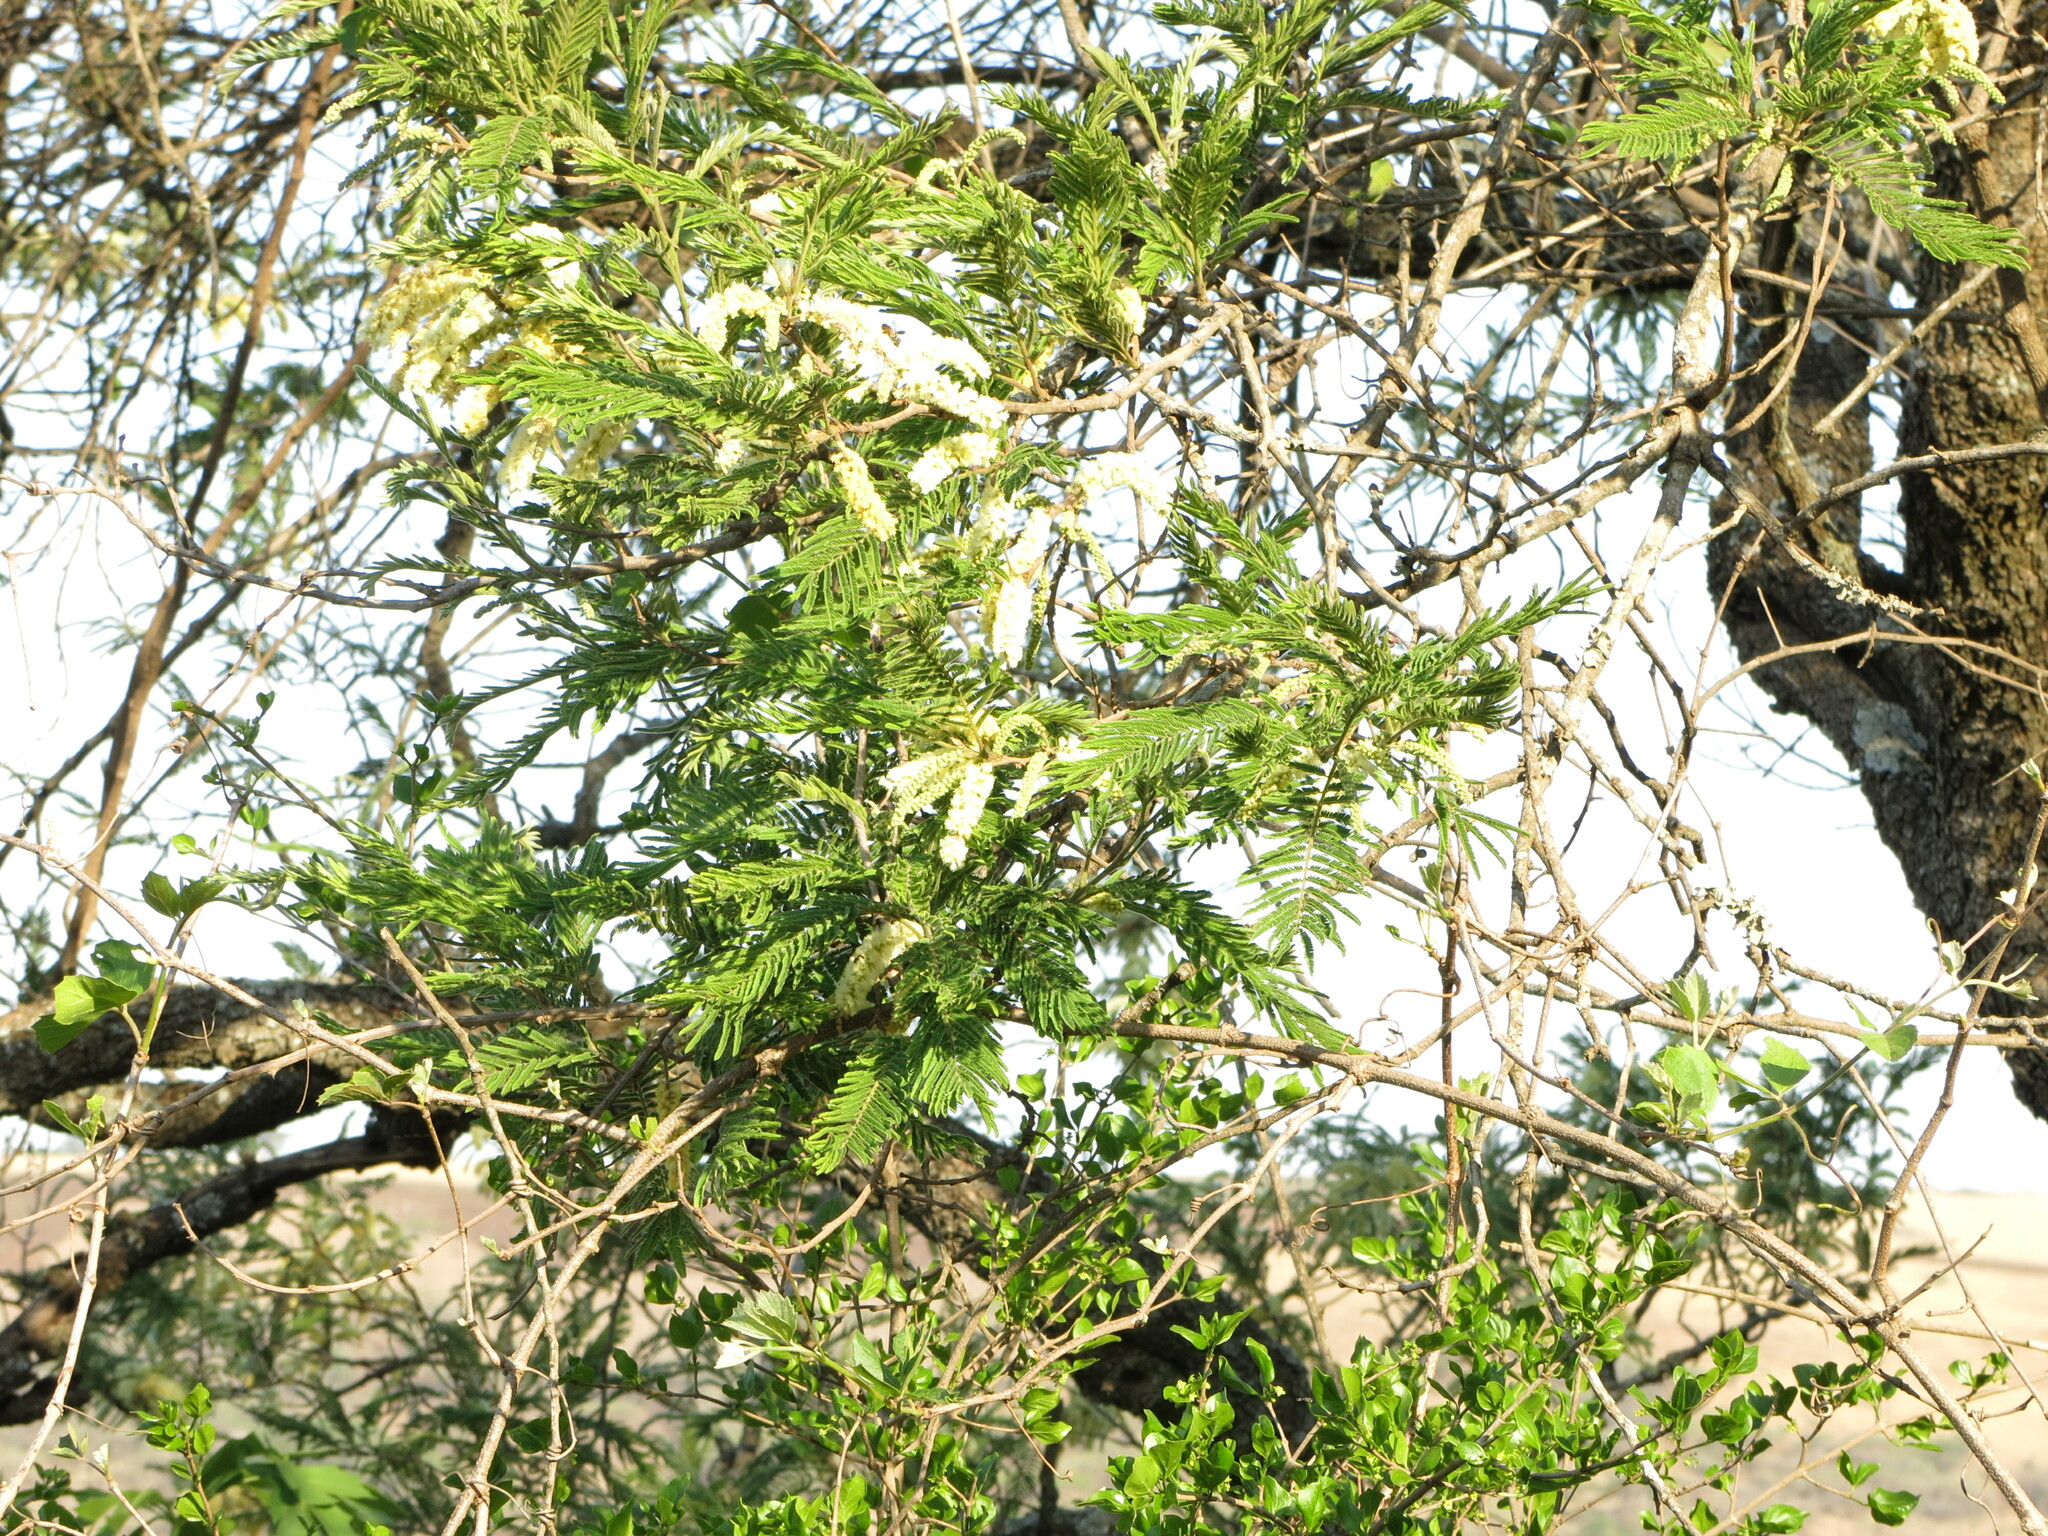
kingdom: Plantae
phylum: Tracheophyta
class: Magnoliopsida
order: Fabales
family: Fabaceae
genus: Senegalia
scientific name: Senegalia caffra
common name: Cat thorn
